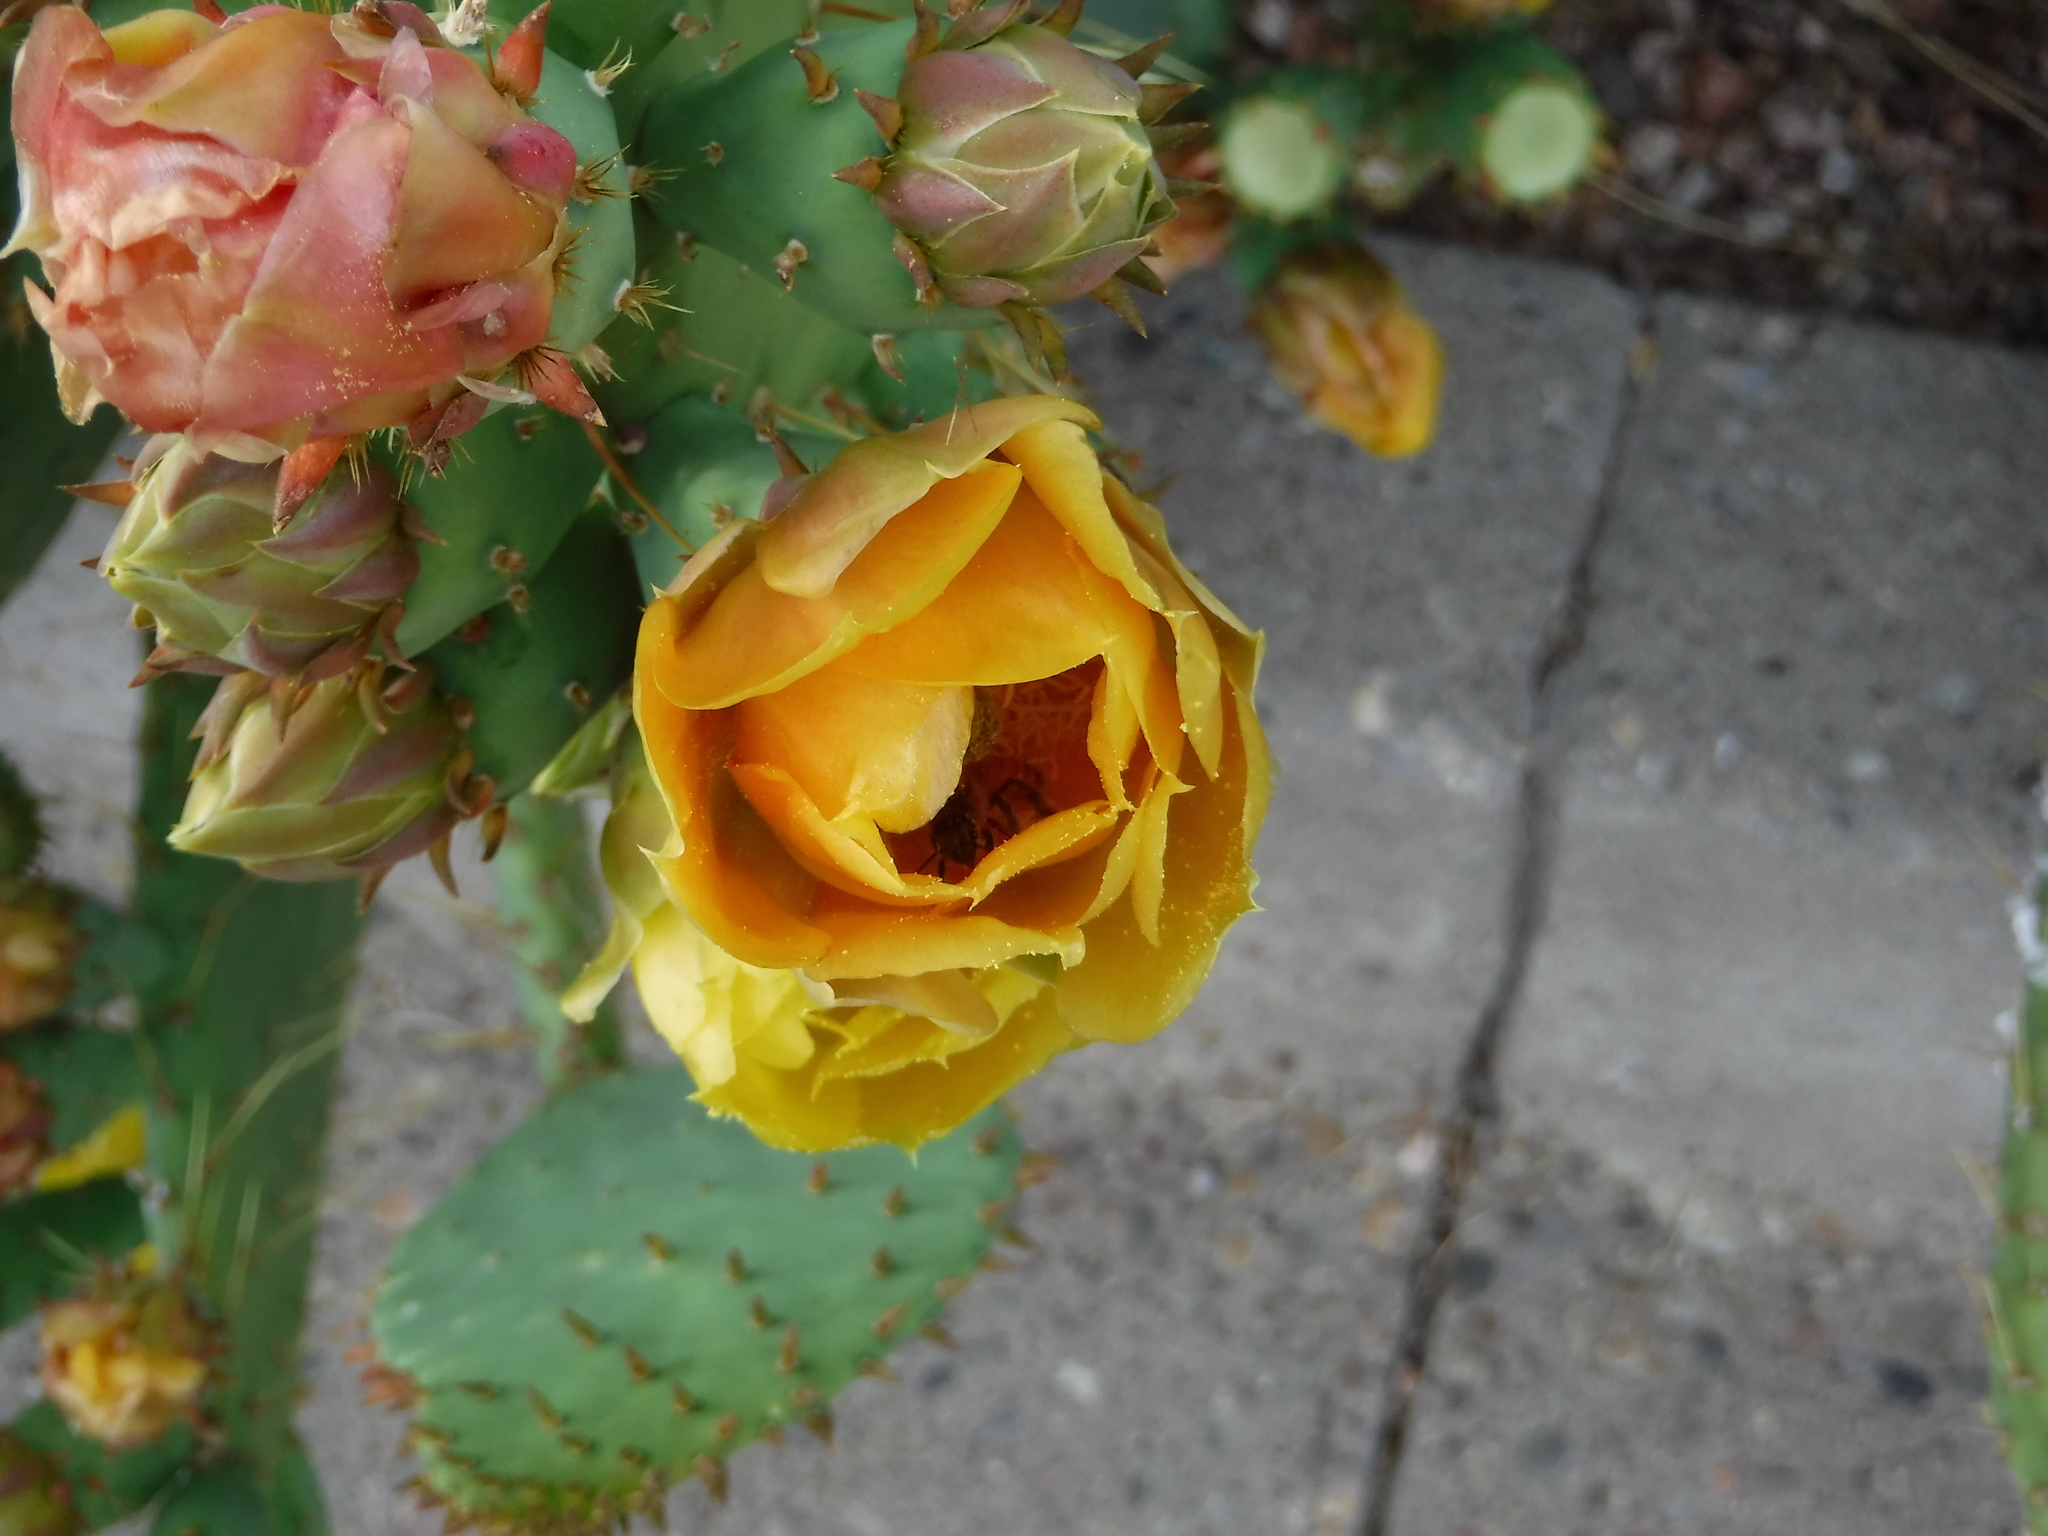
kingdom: Animalia
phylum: Arthropoda
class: Insecta
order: Hymenoptera
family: Apidae
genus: Apis
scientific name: Apis mellifera
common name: Honey bee
